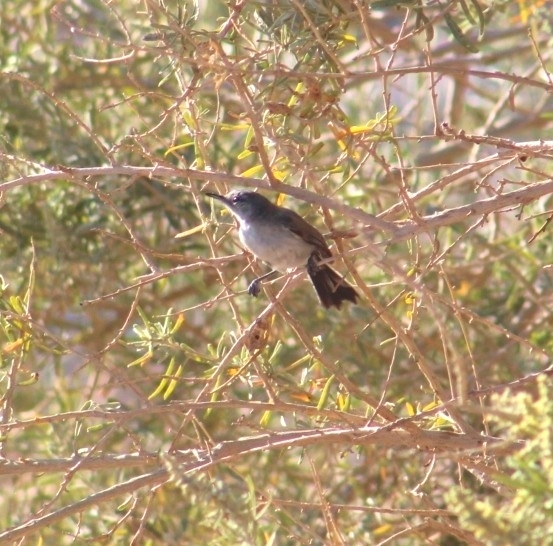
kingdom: Animalia
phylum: Chordata
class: Aves
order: Passeriformes
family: Polioptilidae
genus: Polioptila
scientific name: Polioptila melanura
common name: Black-tailed gnatcatcher
